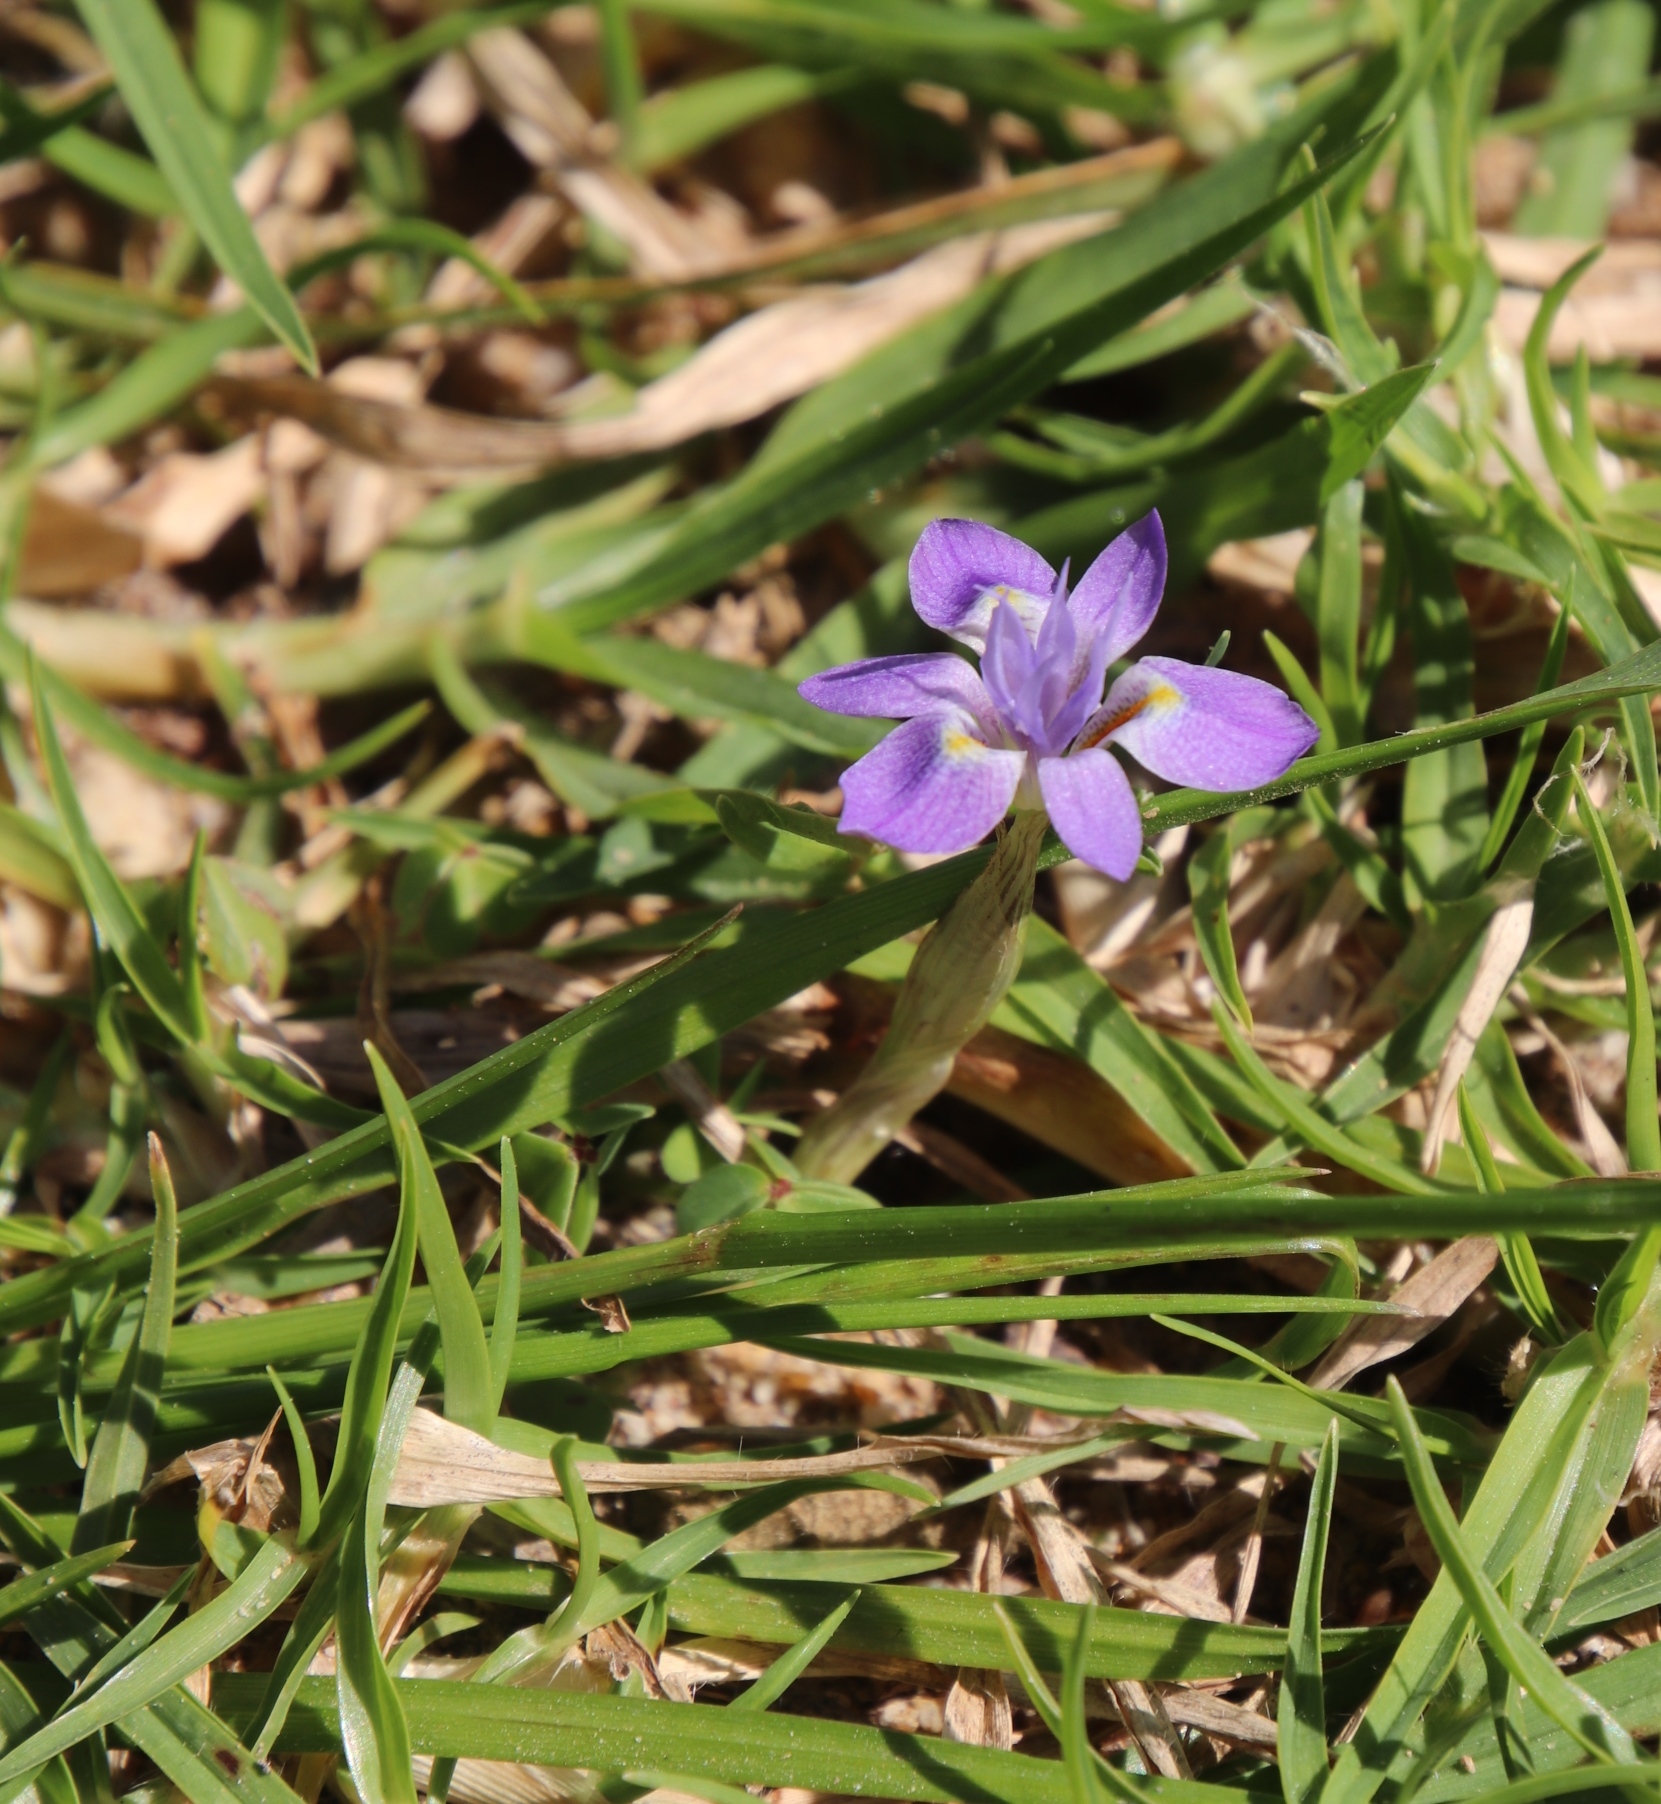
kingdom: Plantae
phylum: Tracheophyta
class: Liliopsida
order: Asparagales
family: Iridaceae
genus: Moraea
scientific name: Moraea setifolia
